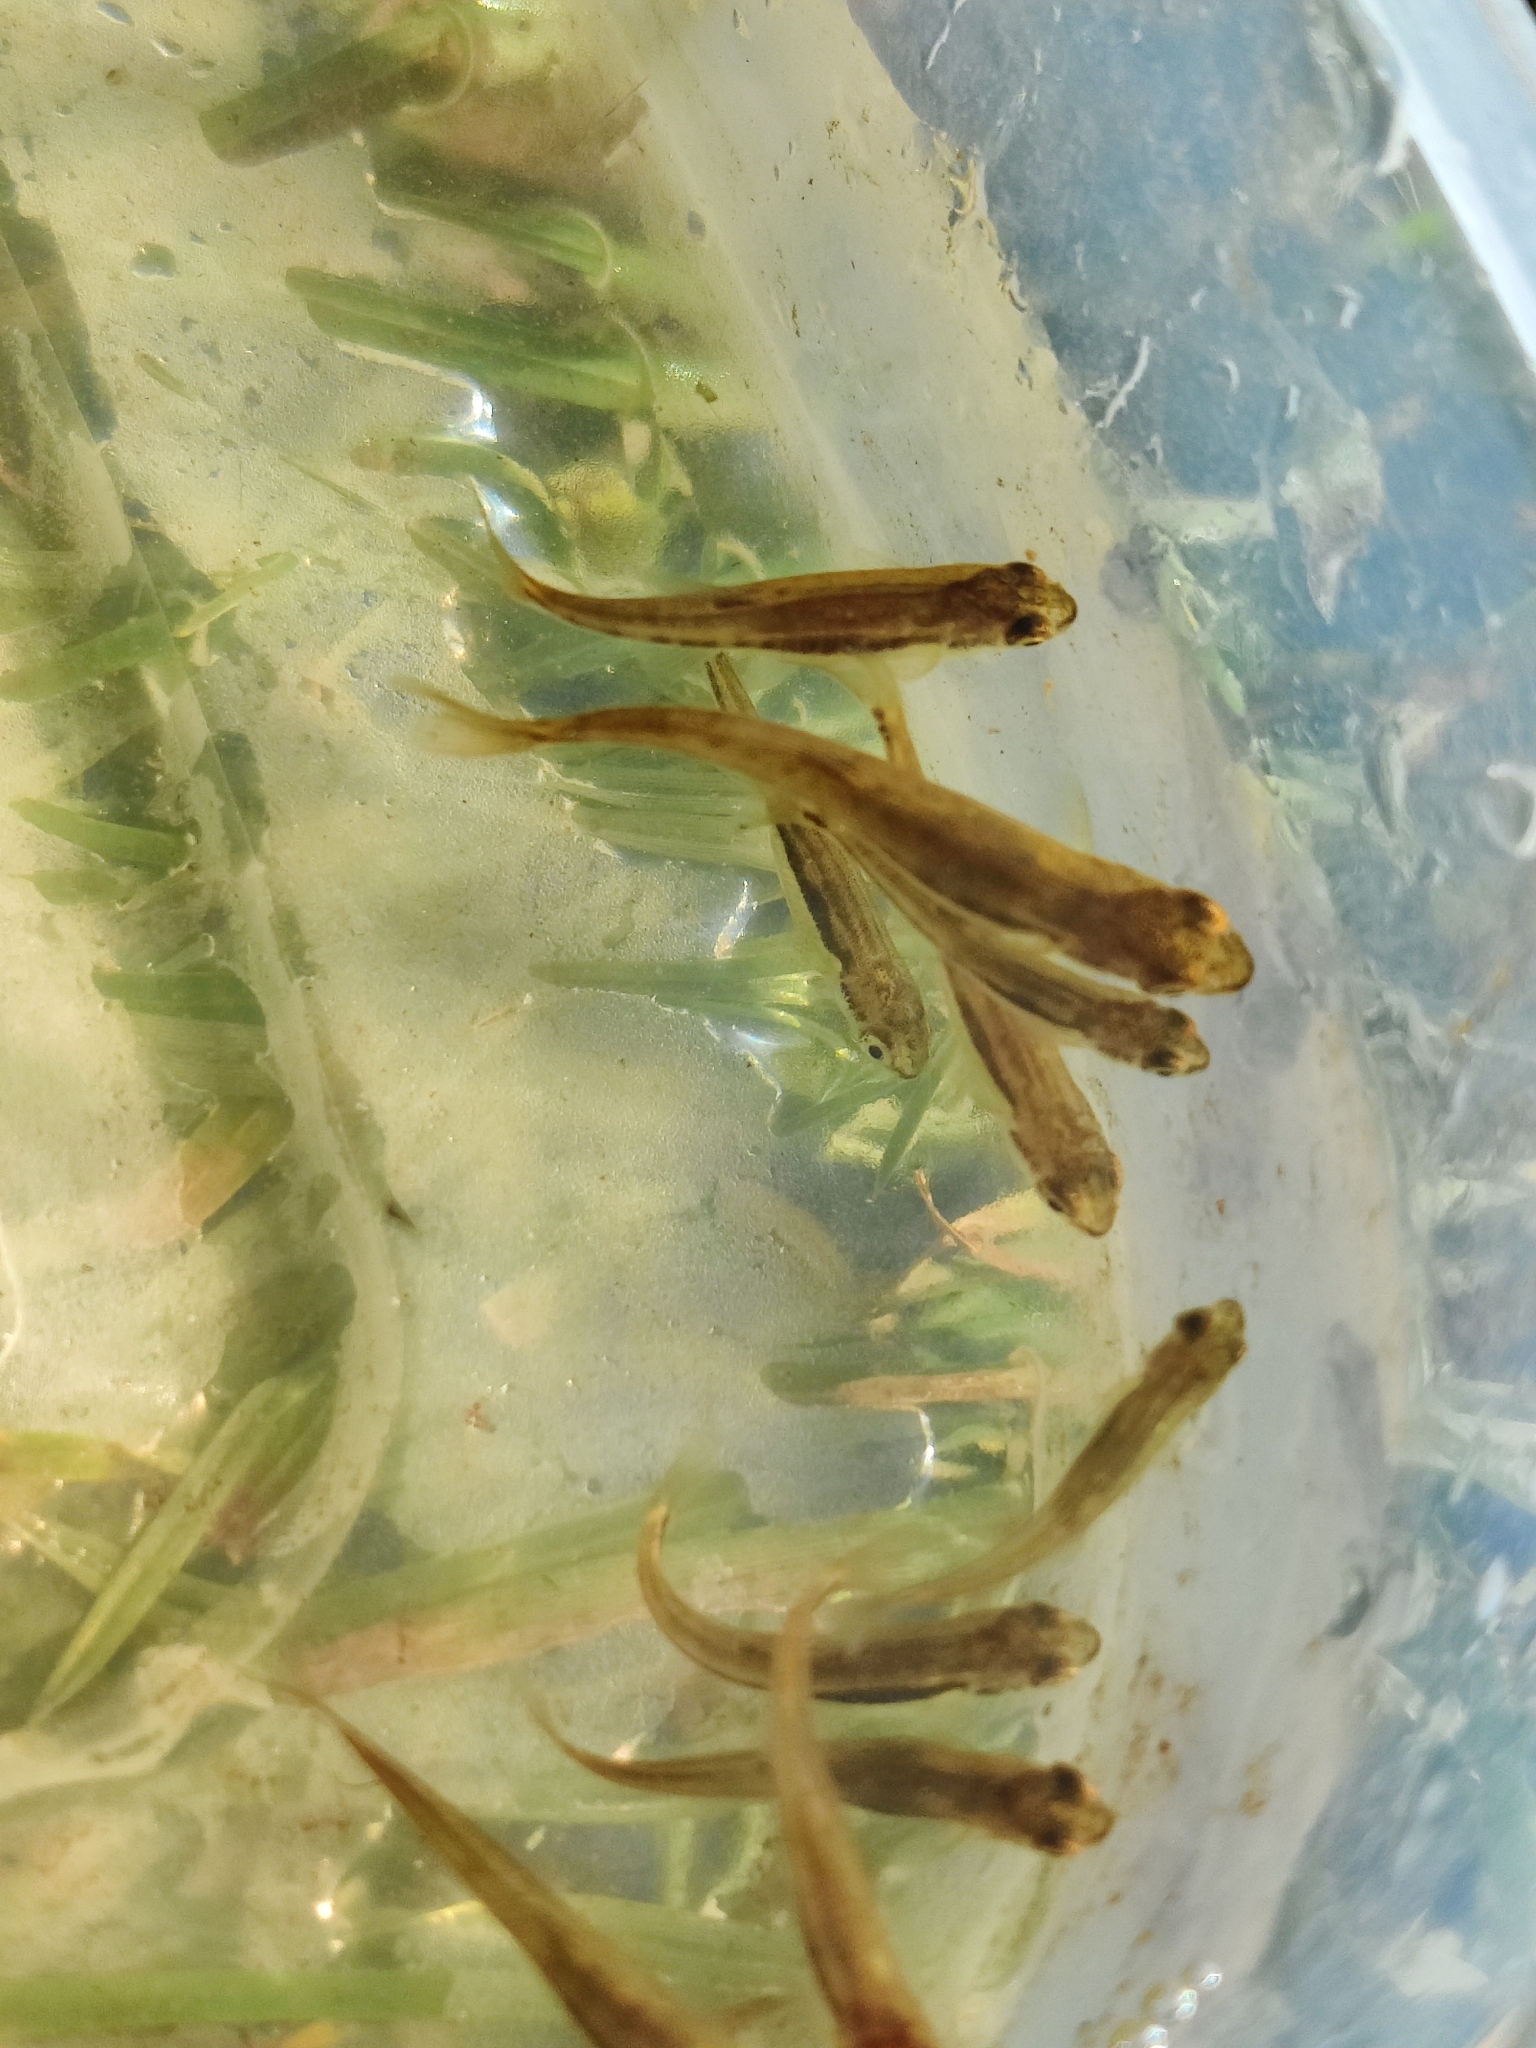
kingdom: Animalia
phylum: Chordata
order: Cypriniformes
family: Cyprinidae
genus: Phoxinus
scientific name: Phoxinus phoxinus
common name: Minnow
